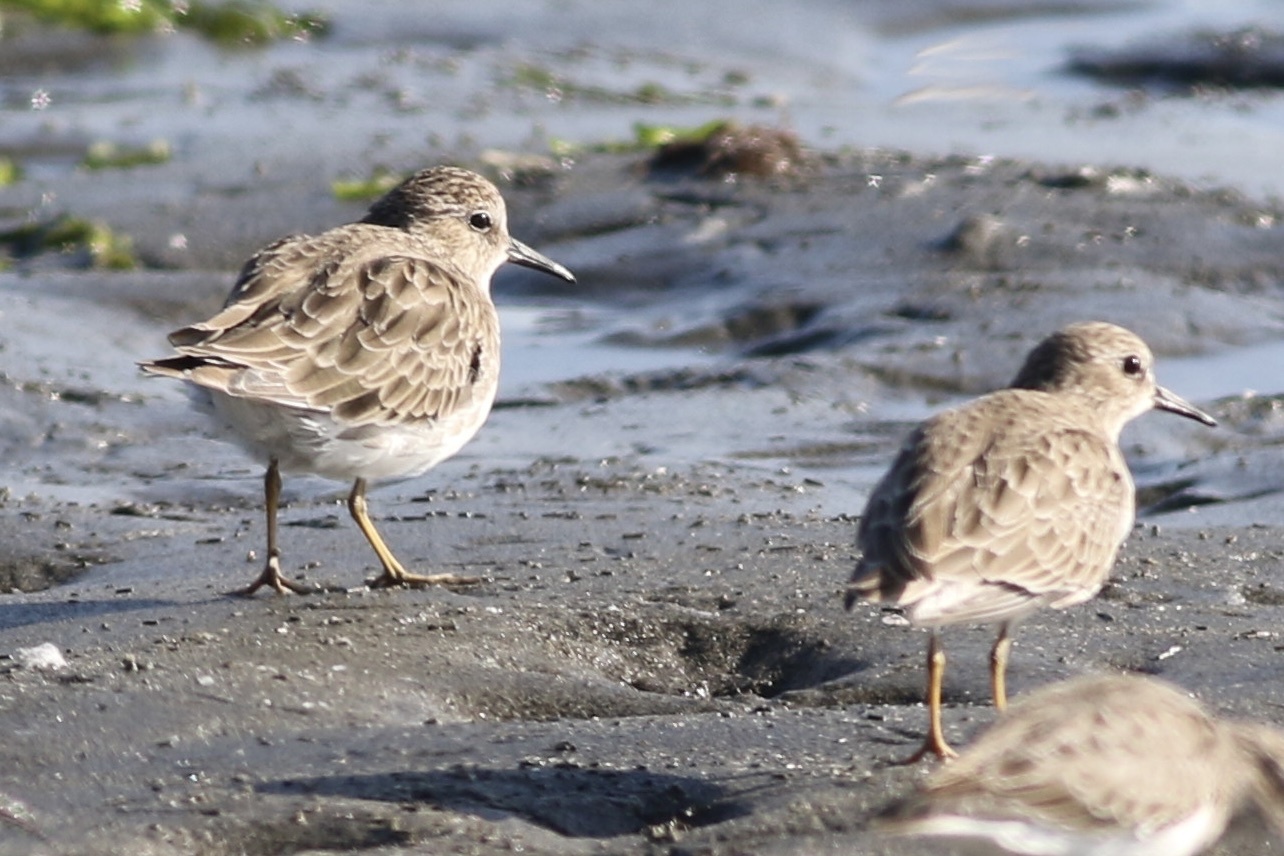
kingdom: Animalia
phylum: Chordata
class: Aves
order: Charadriiformes
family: Scolopacidae
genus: Calidris
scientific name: Calidris minutilla
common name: Least sandpiper
